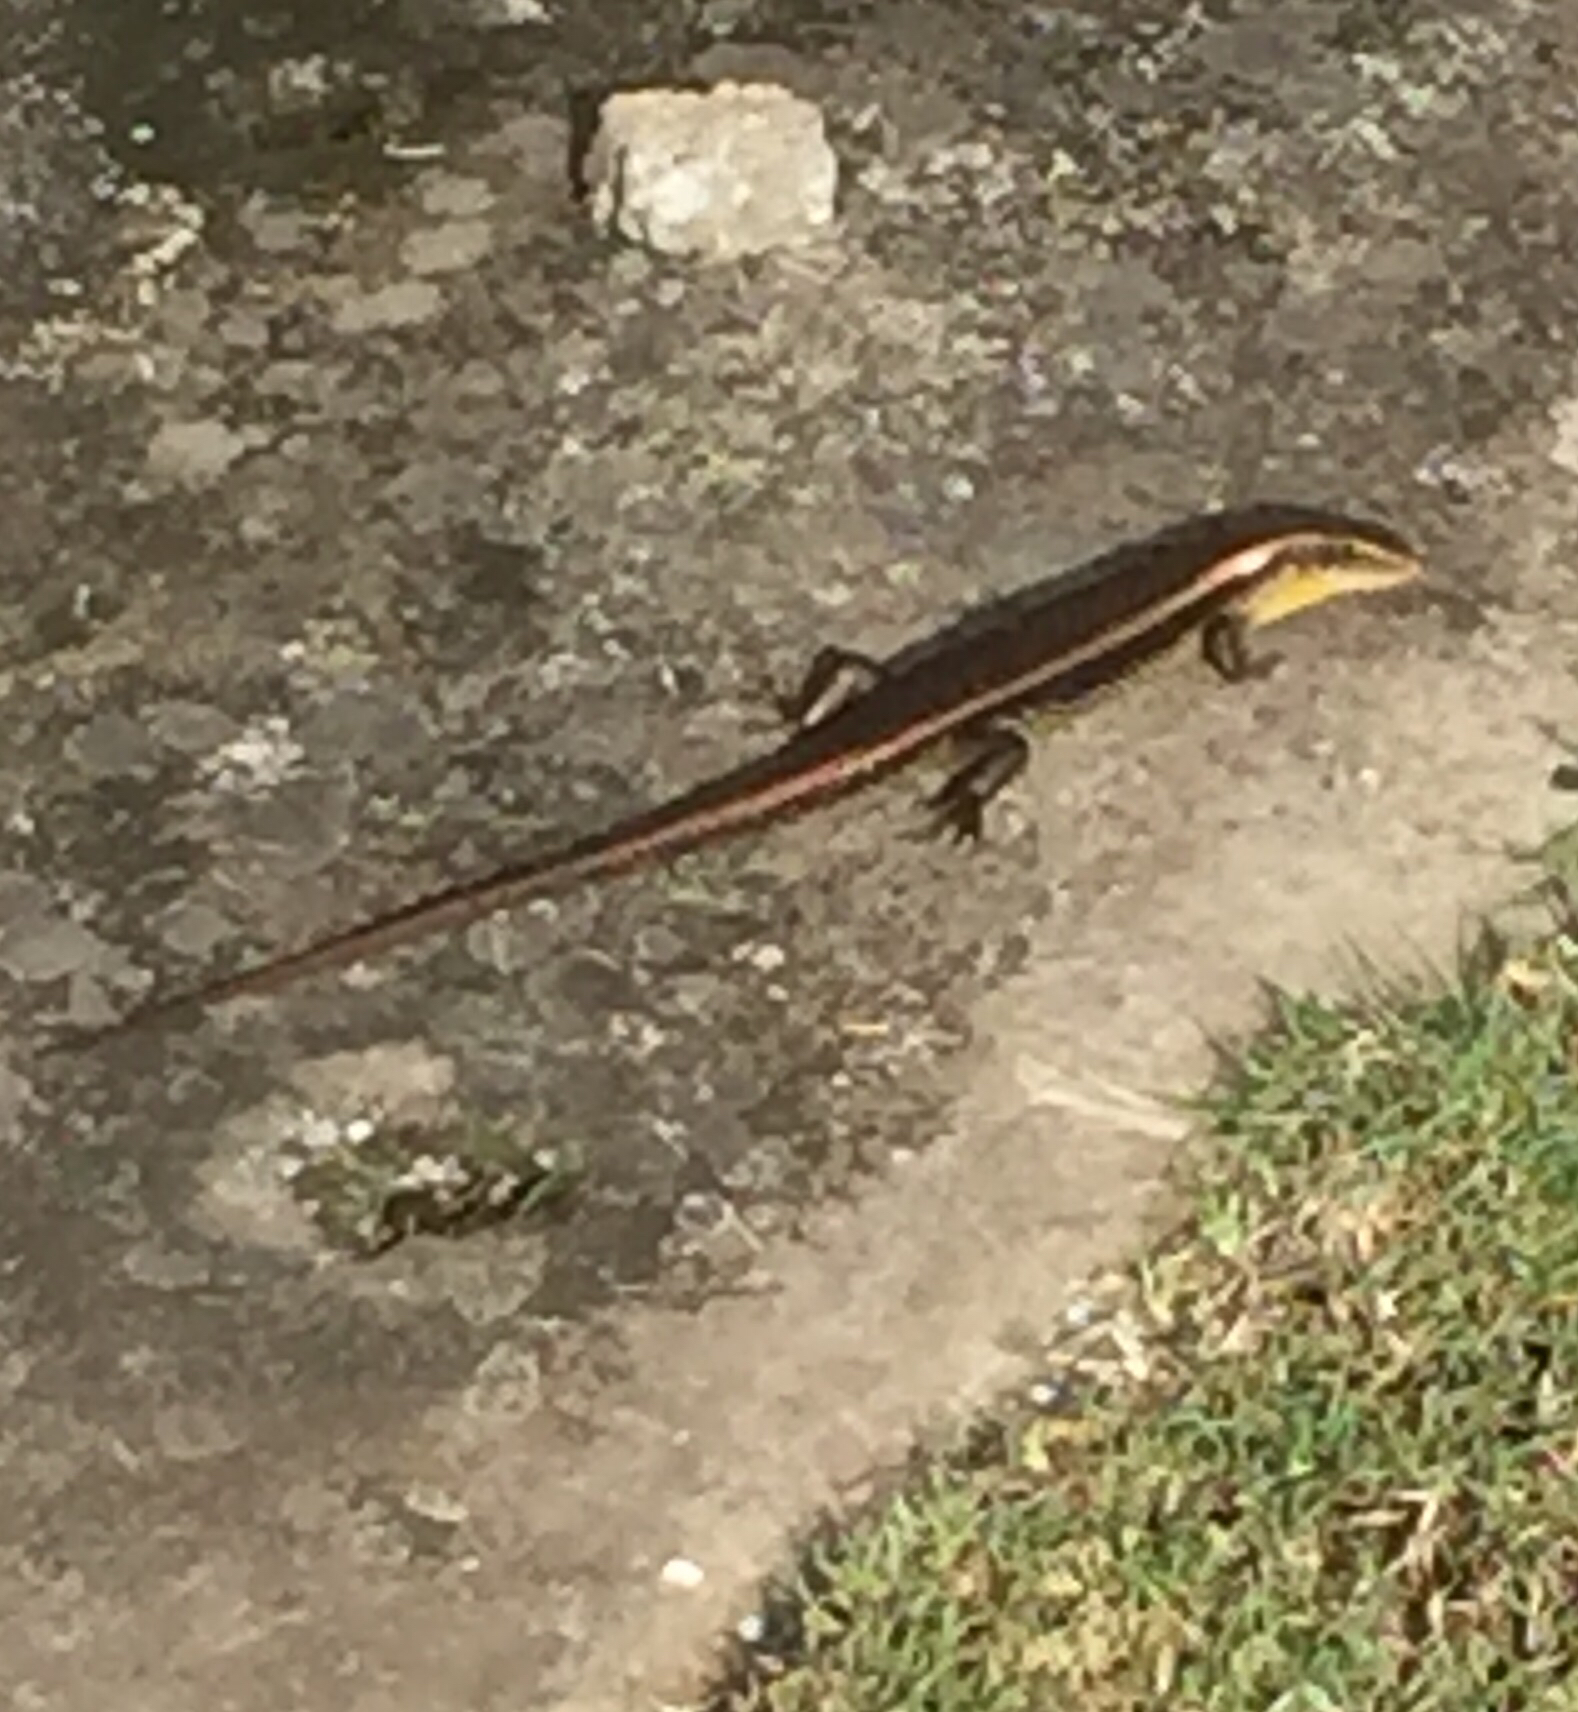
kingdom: Animalia
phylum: Chordata
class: Squamata
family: Scincidae
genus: Eutropis
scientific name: Eutropis multifasciata
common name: Common mabuya
